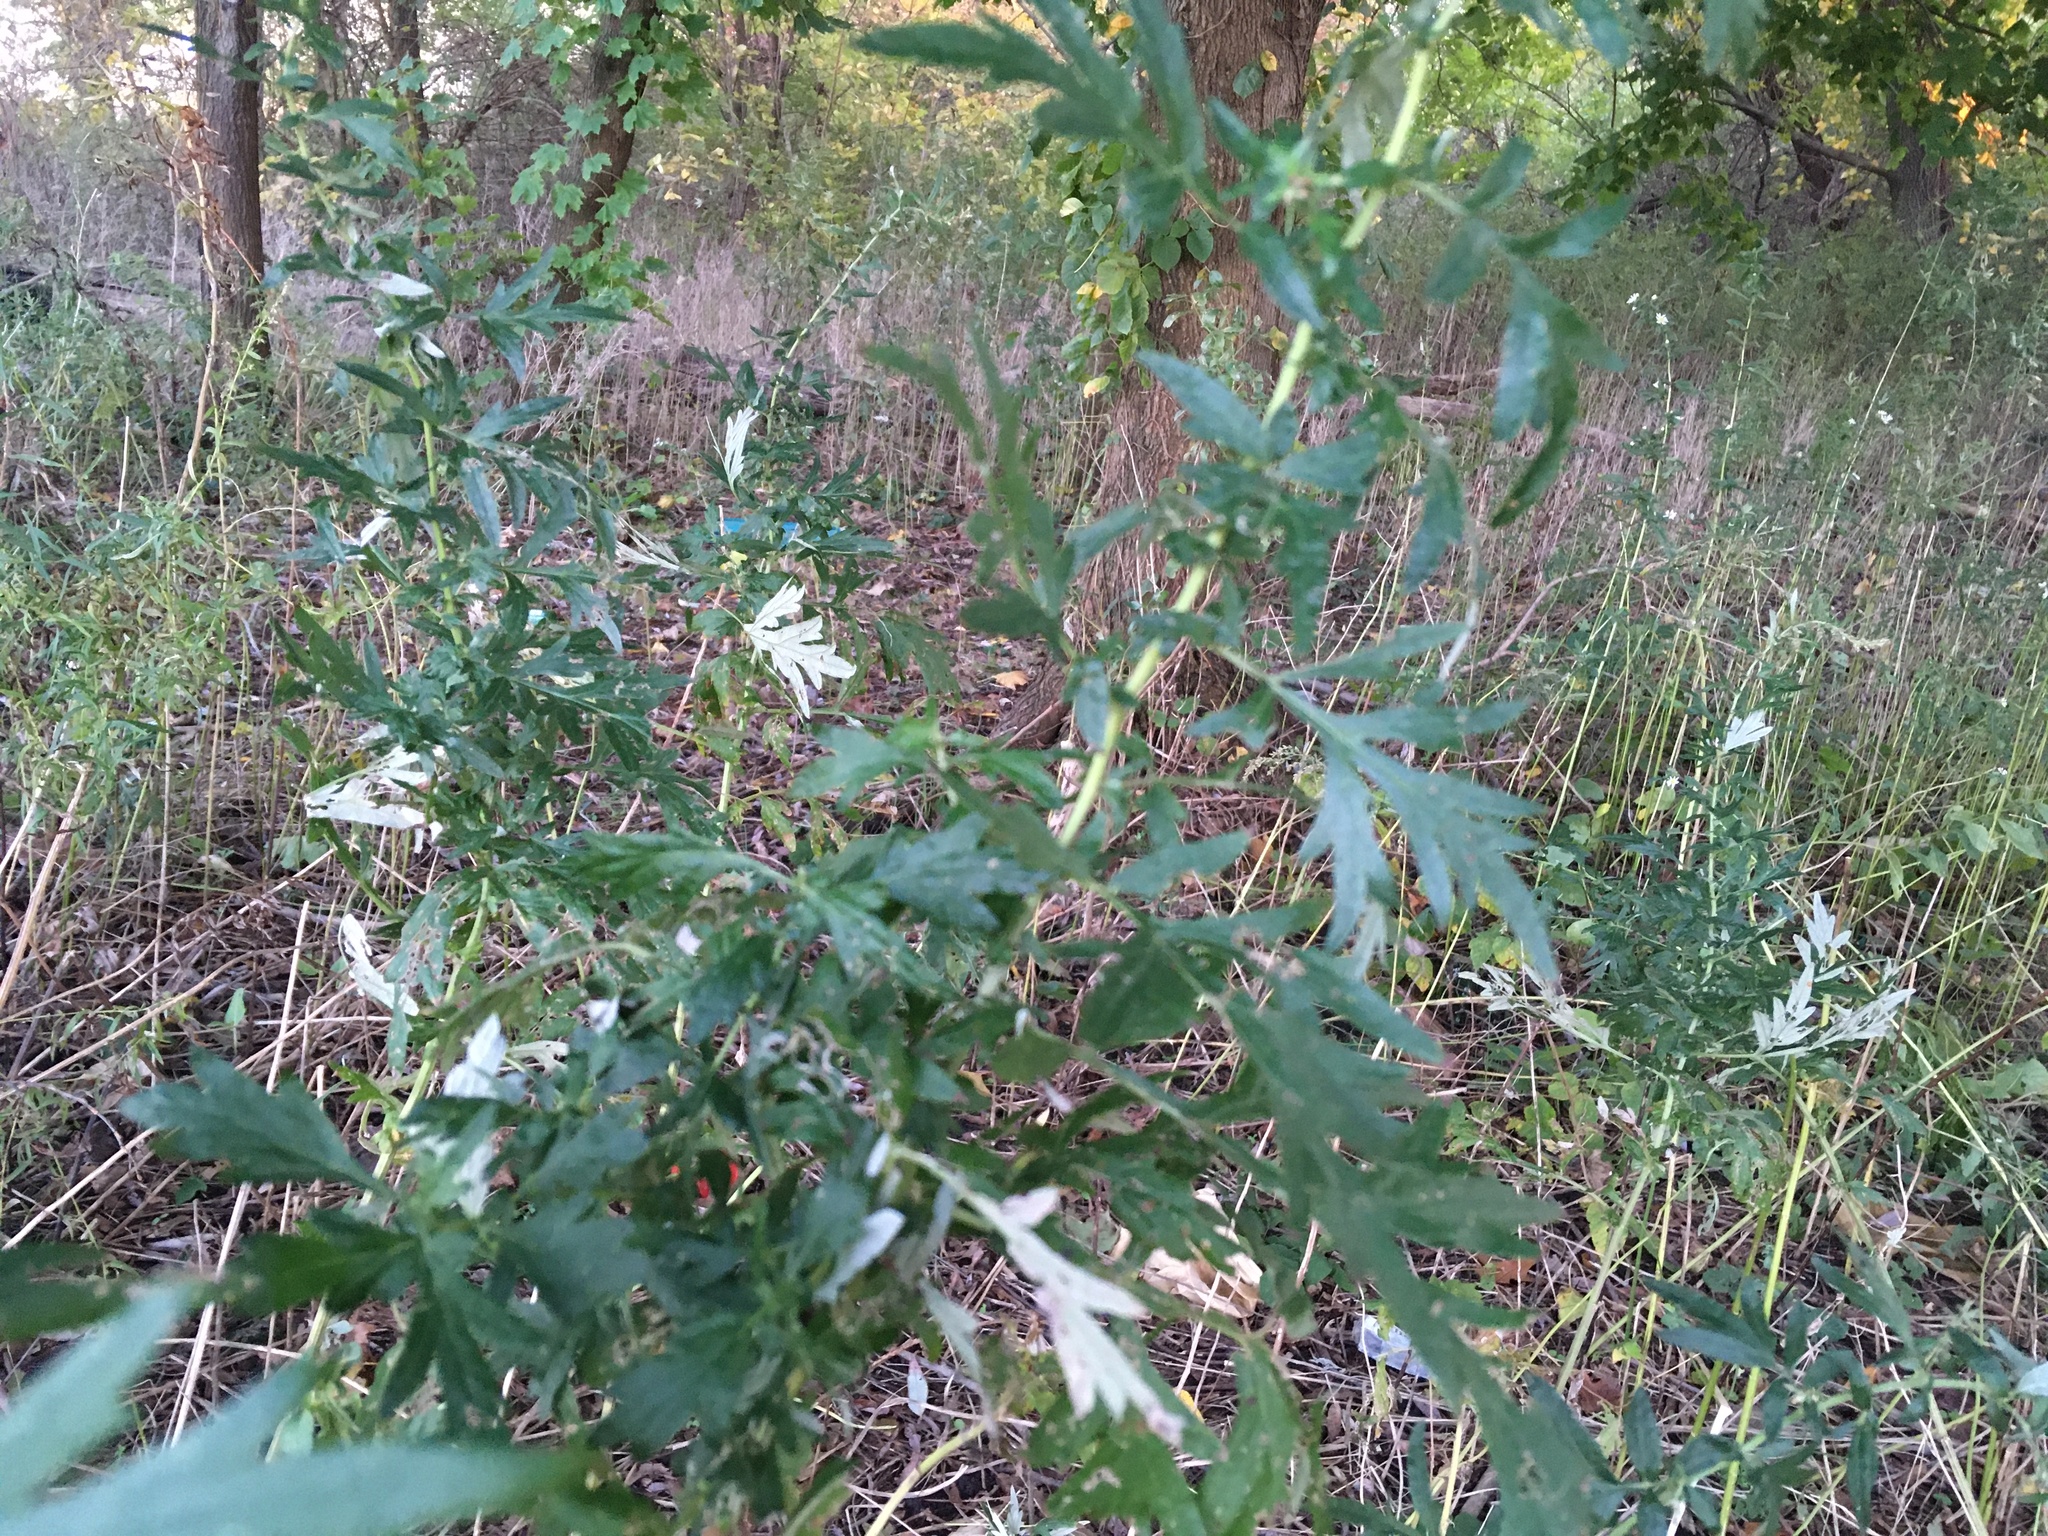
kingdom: Plantae
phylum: Tracheophyta
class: Magnoliopsida
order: Asterales
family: Asteraceae
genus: Artemisia
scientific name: Artemisia vulgaris
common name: Mugwort
